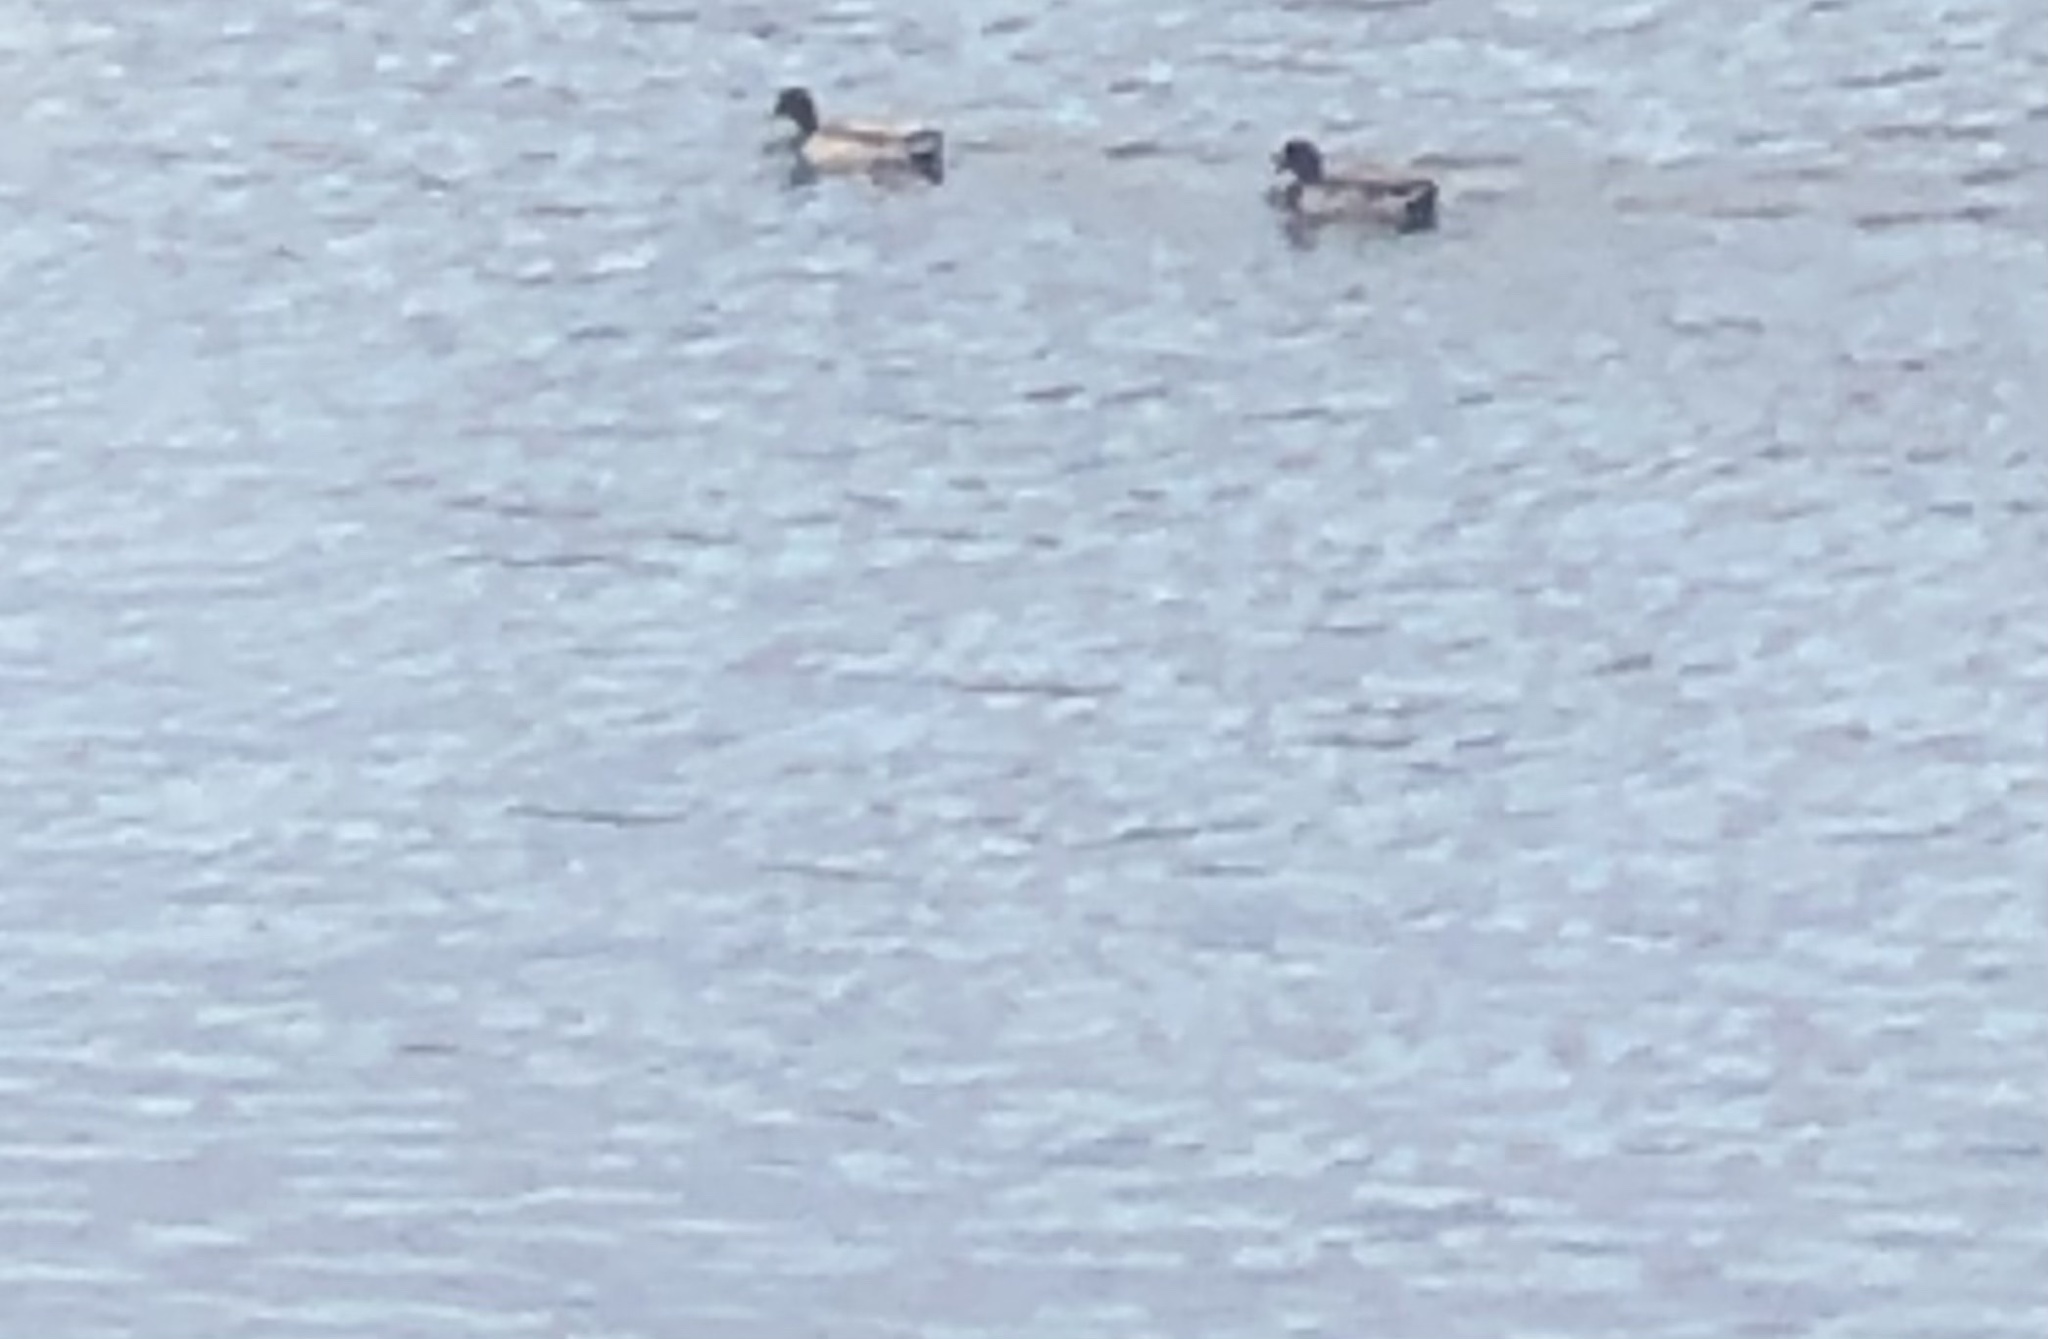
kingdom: Animalia
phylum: Chordata
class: Aves
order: Anseriformes
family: Anatidae
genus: Anas
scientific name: Anas platyrhynchos
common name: Mallard
